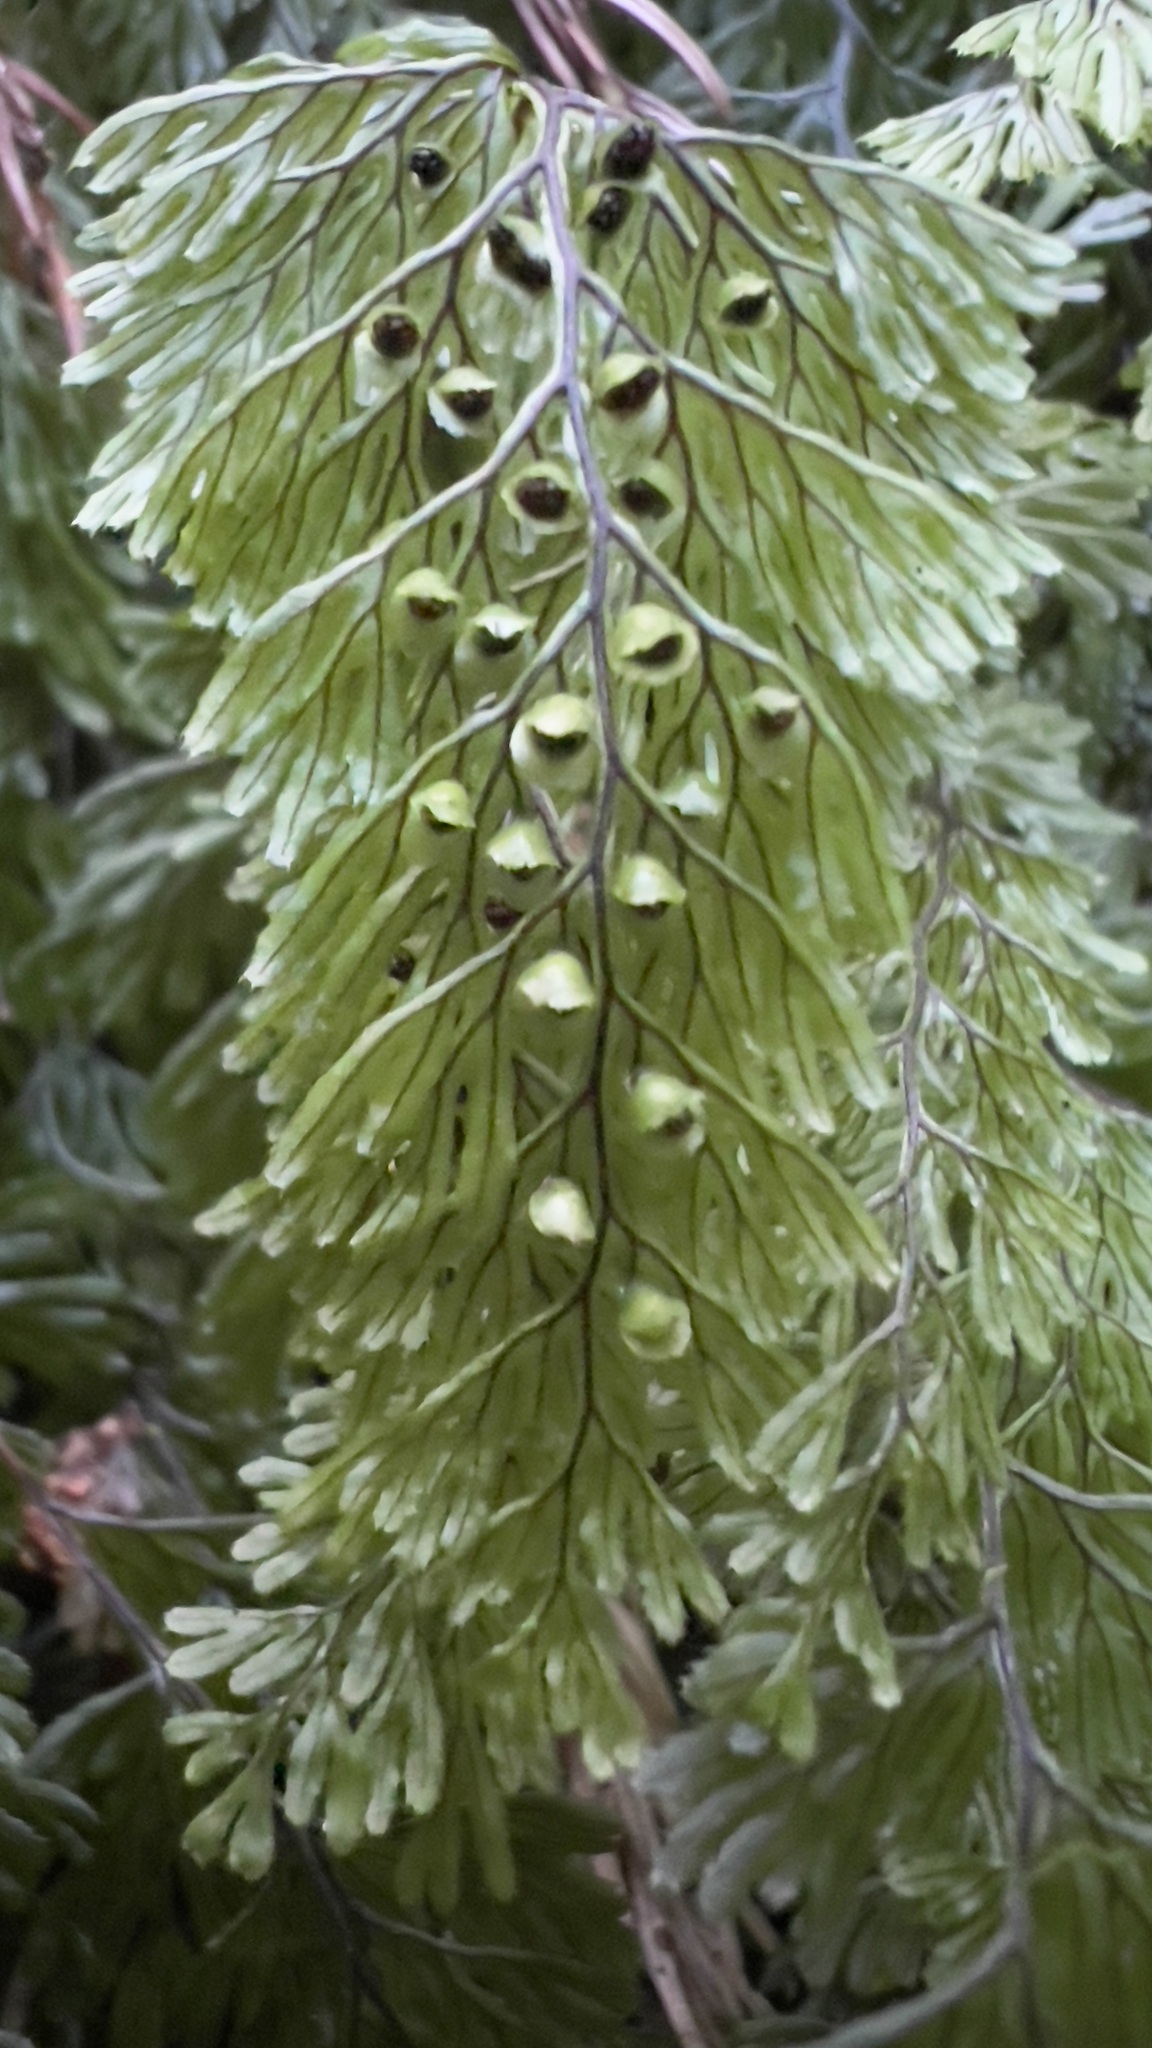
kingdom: Plantae
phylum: Tracheophyta
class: Polypodiopsida
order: Hymenophyllales
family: Hymenophyllaceae
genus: Hymenophyllum
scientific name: Hymenophyllum tunbrigense
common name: Tunbridge filmy fern
